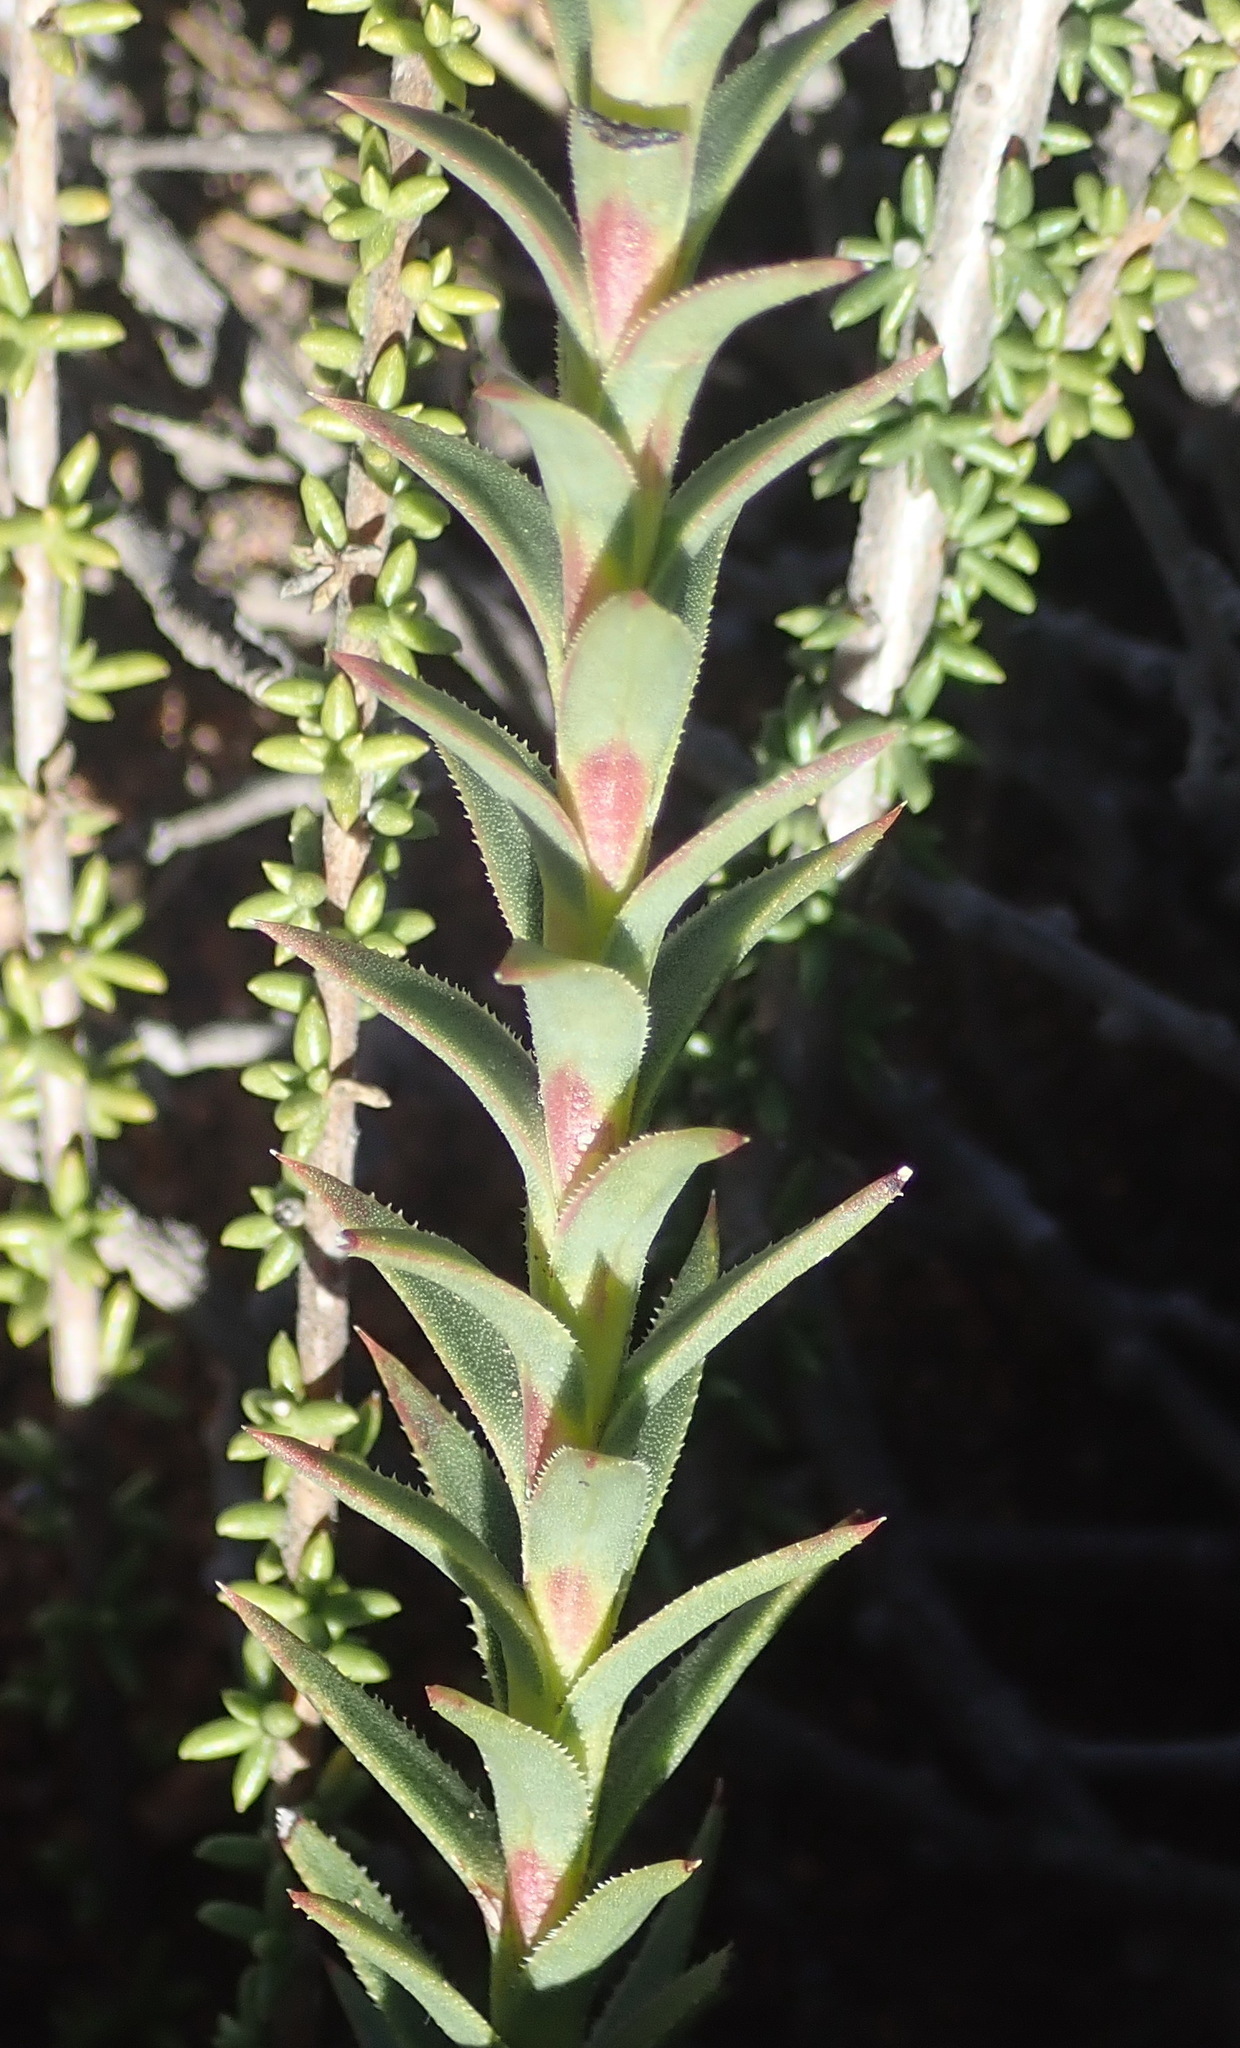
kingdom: Plantae
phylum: Tracheophyta
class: Magnoliopsida
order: Asterales
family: Asteraceae
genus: Oedera
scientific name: Oedera imbricata
